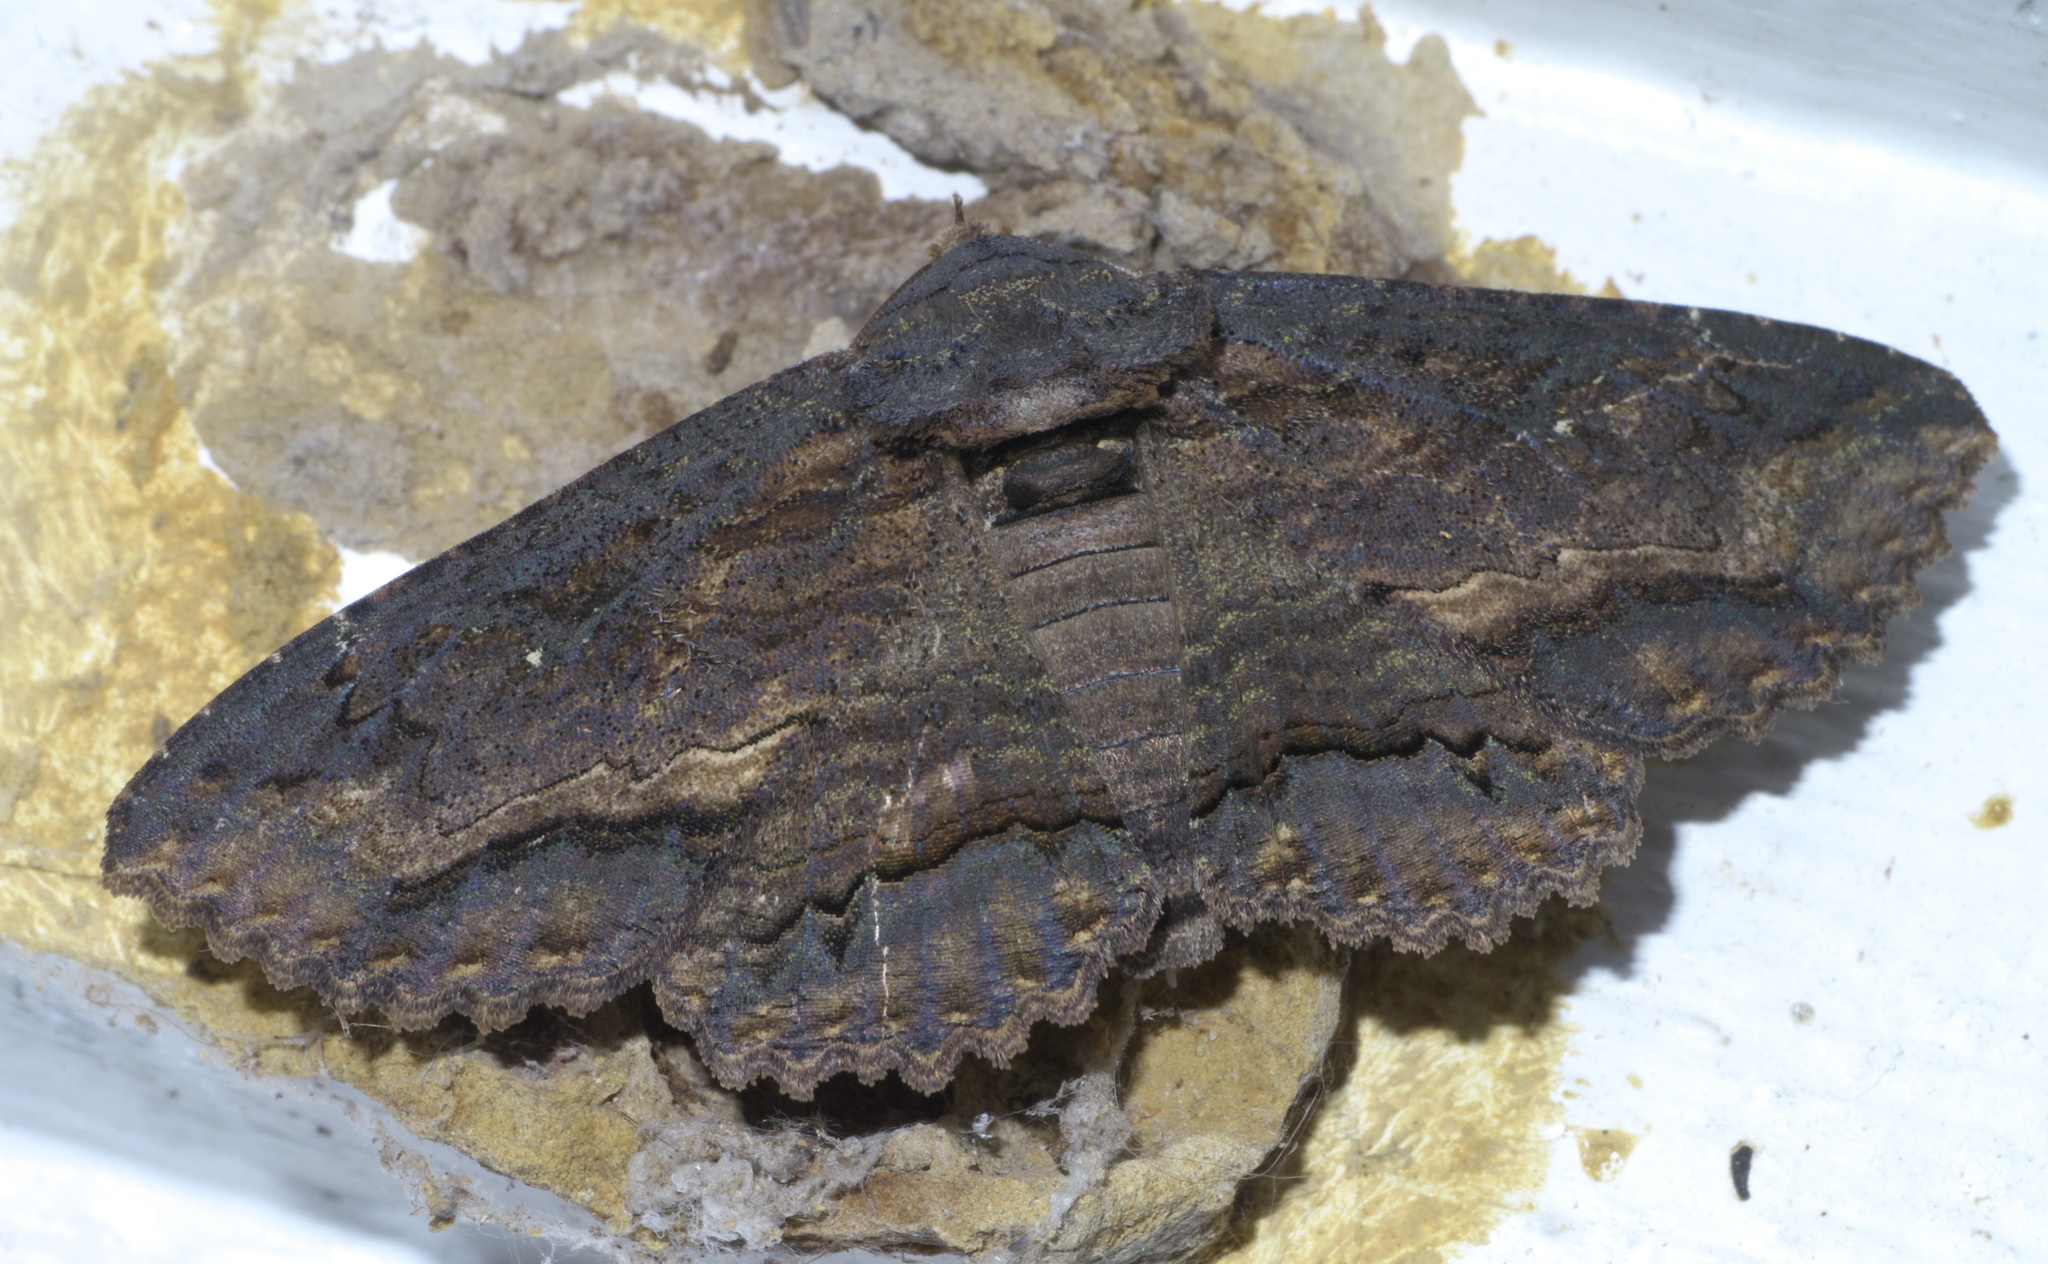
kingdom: Animalia
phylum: Arthropoda
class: Insecta
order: Lepidoptera
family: Erebidae
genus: Zale
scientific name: Zale lunata
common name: Lunate zale moth
